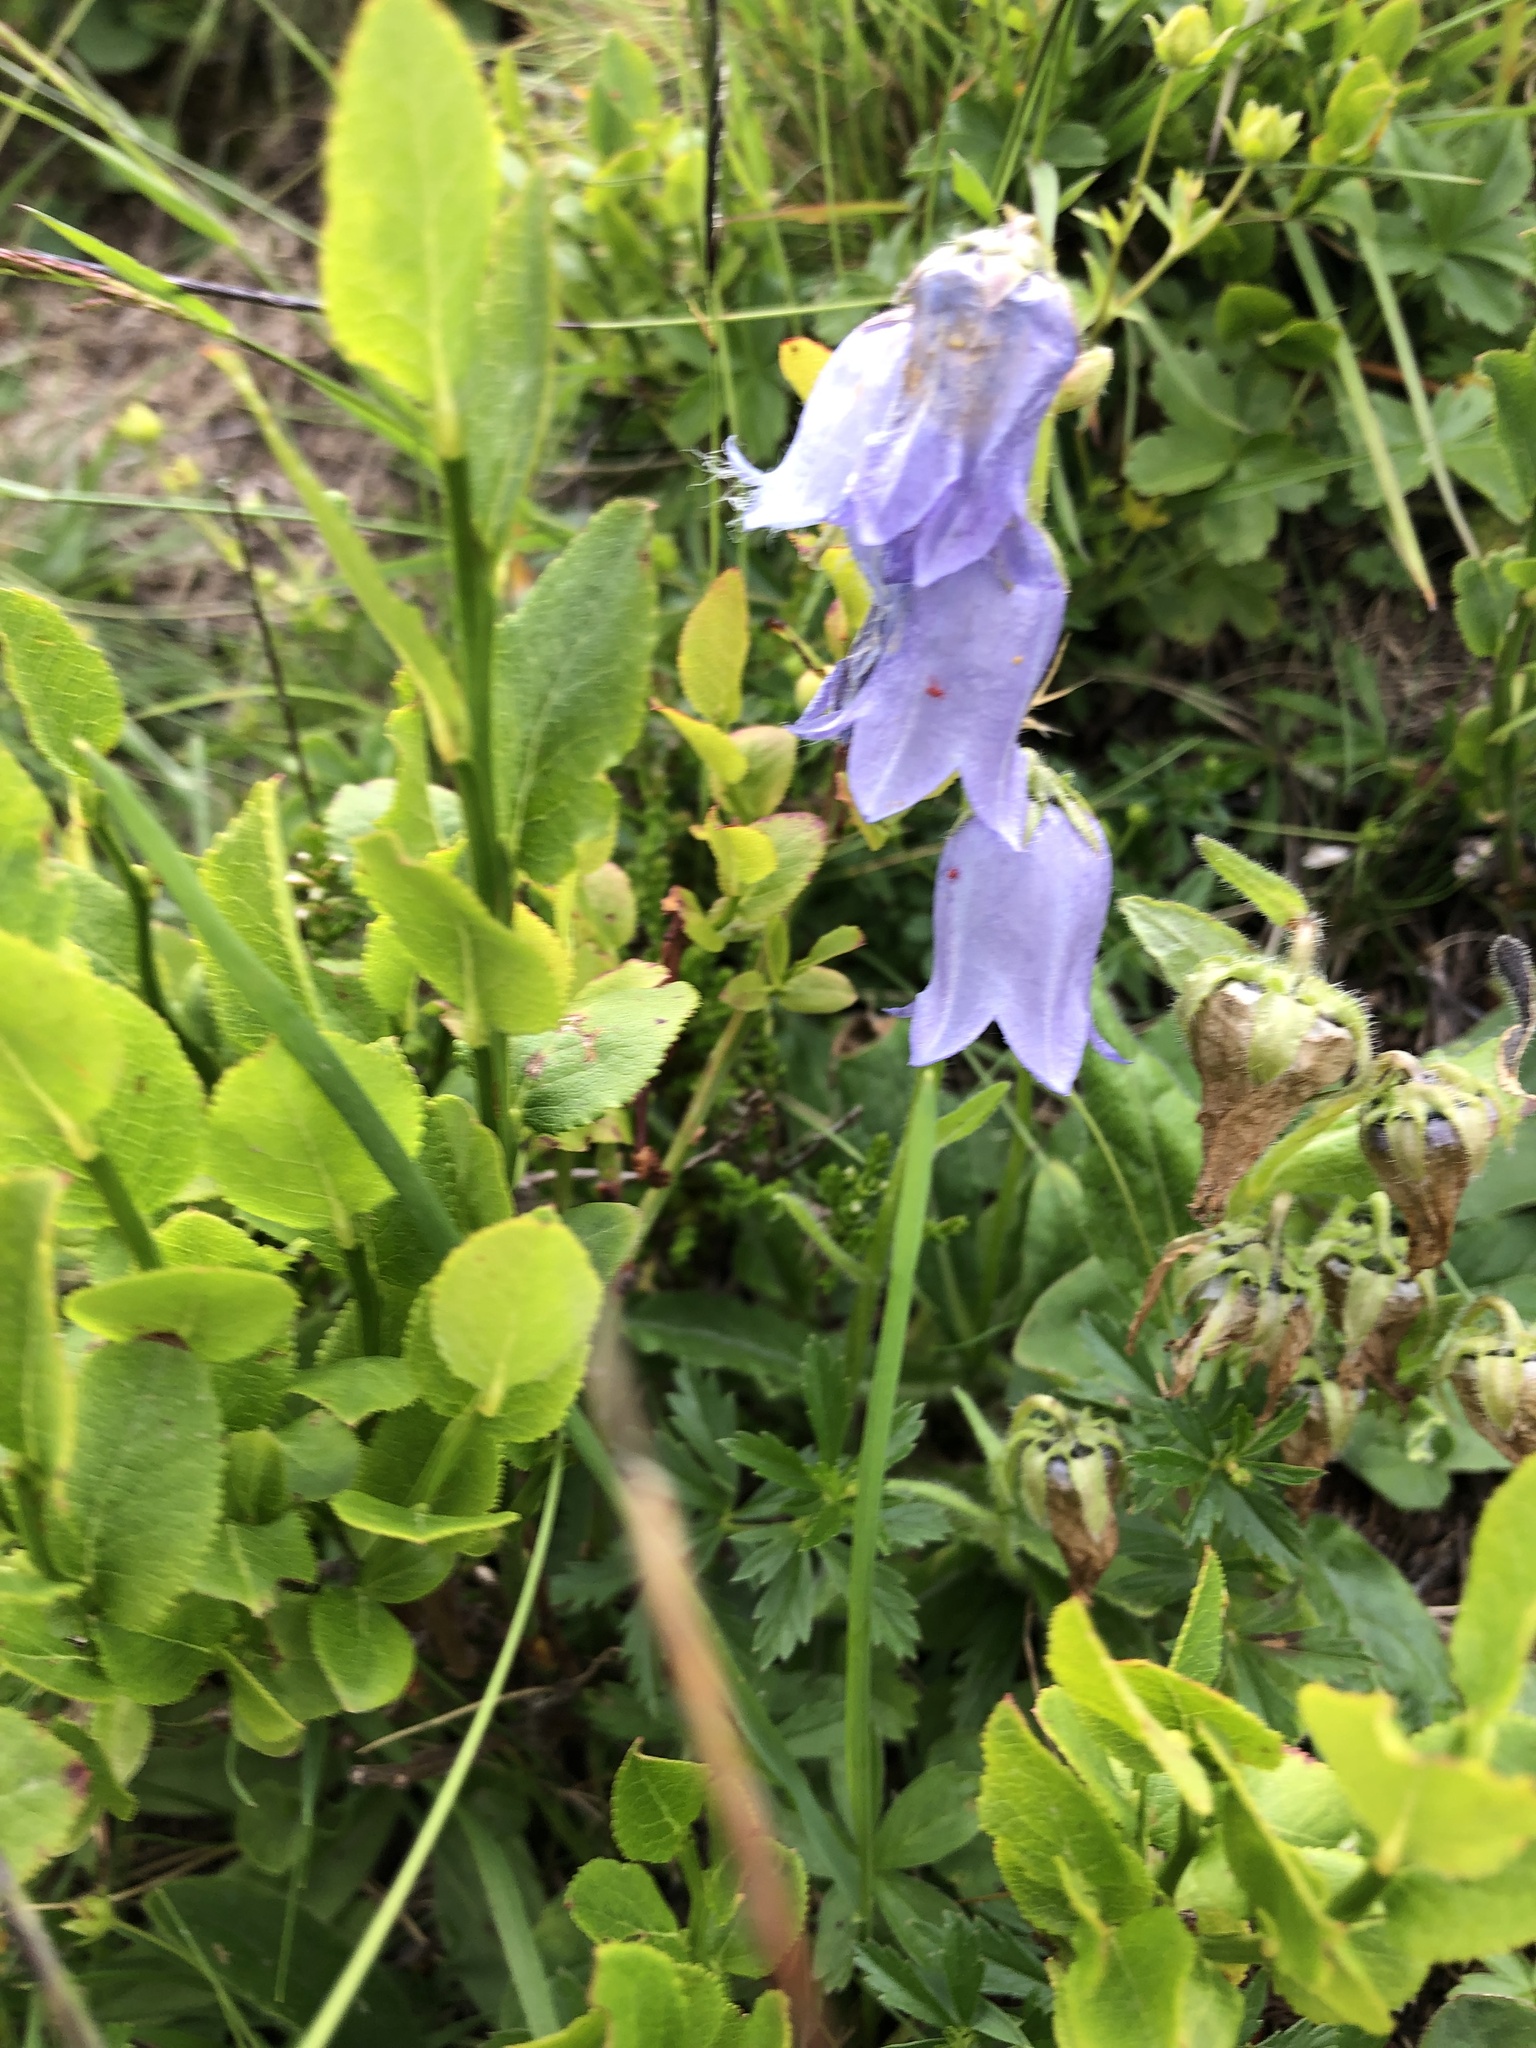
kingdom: Plantae
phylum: Tracheophyta
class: Magnoliopsida
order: Asterales
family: Campanulaceae
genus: Campanula
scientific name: Campanula barbata
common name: Bearded bellflower
